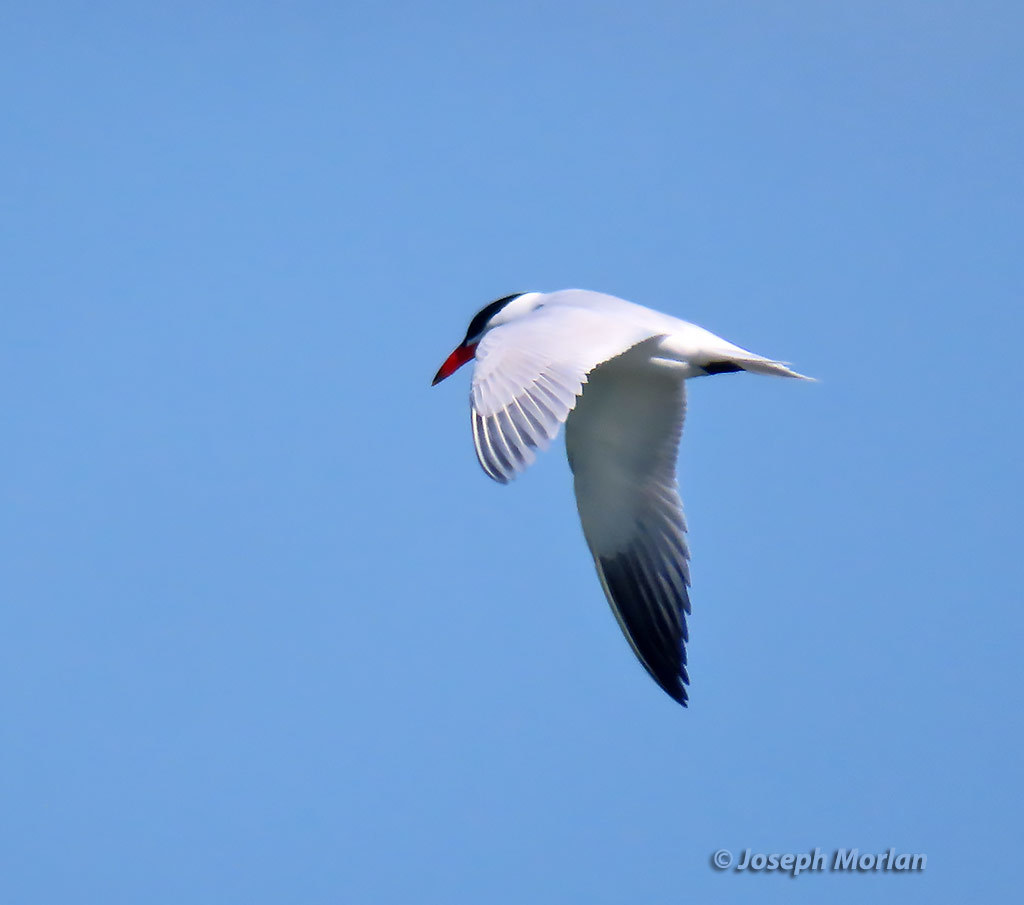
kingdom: Animalia
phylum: Chordata
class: Aves
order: Charadriiformes
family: Laridae
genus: Hydroprogne
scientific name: Hydroprogne caspia
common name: Caspian tern
